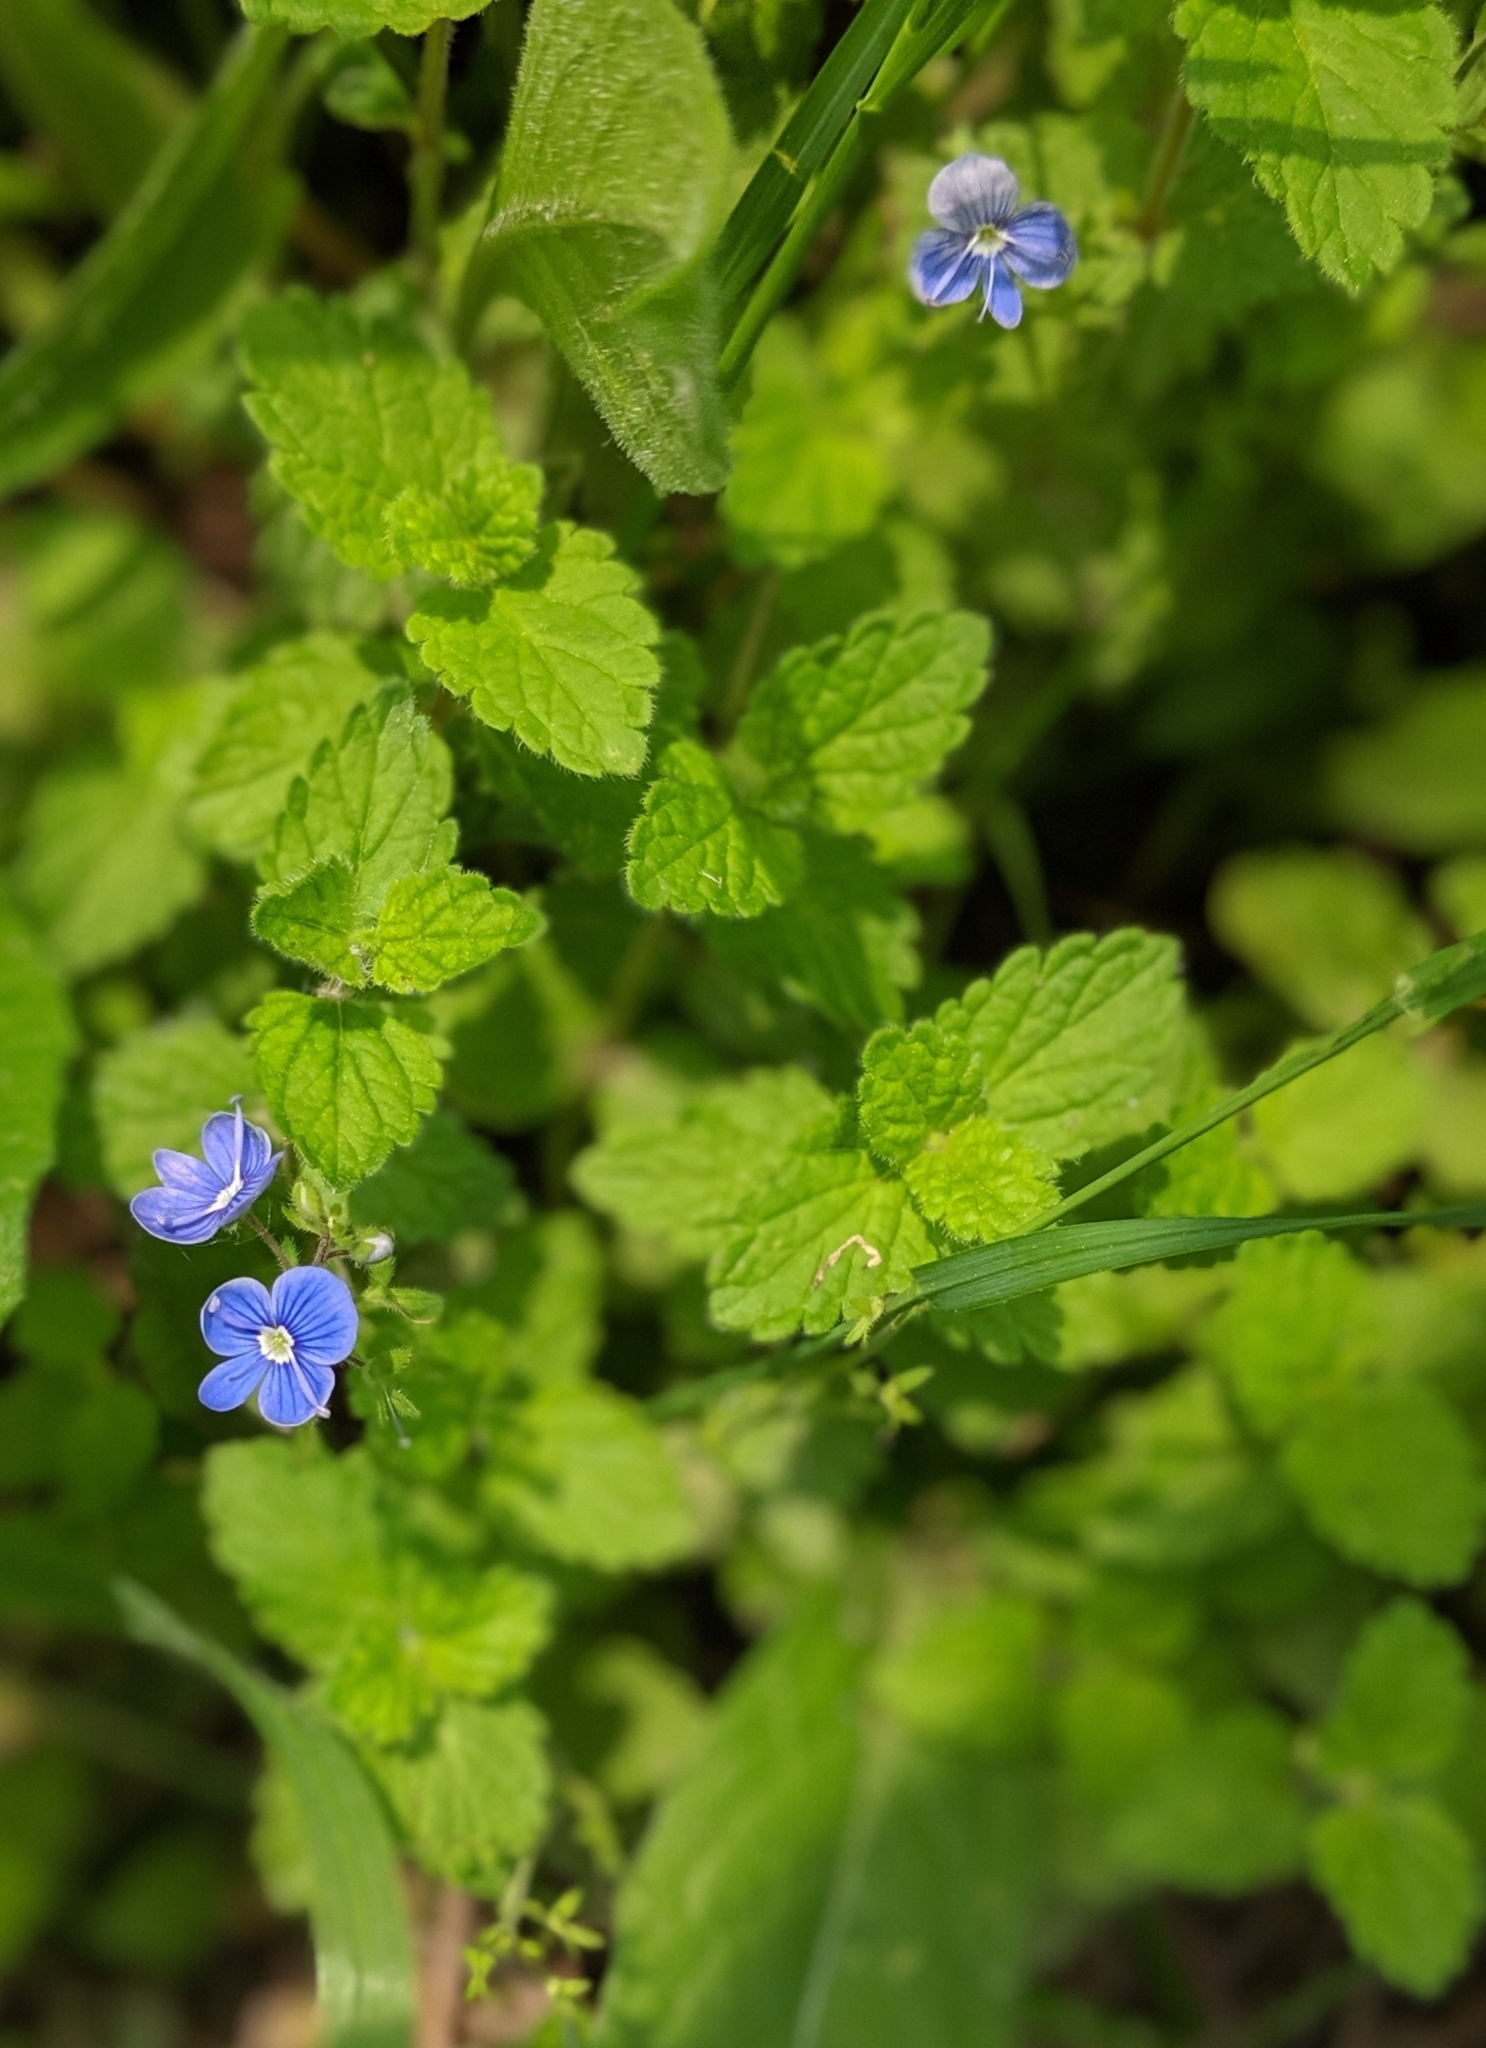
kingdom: Plantae
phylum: Tracheophyta
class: Magnoliopsida
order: Lamiales
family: Plantaginaceae
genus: Veronica
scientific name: Veronica chamaedrys
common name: Germander speedwell
